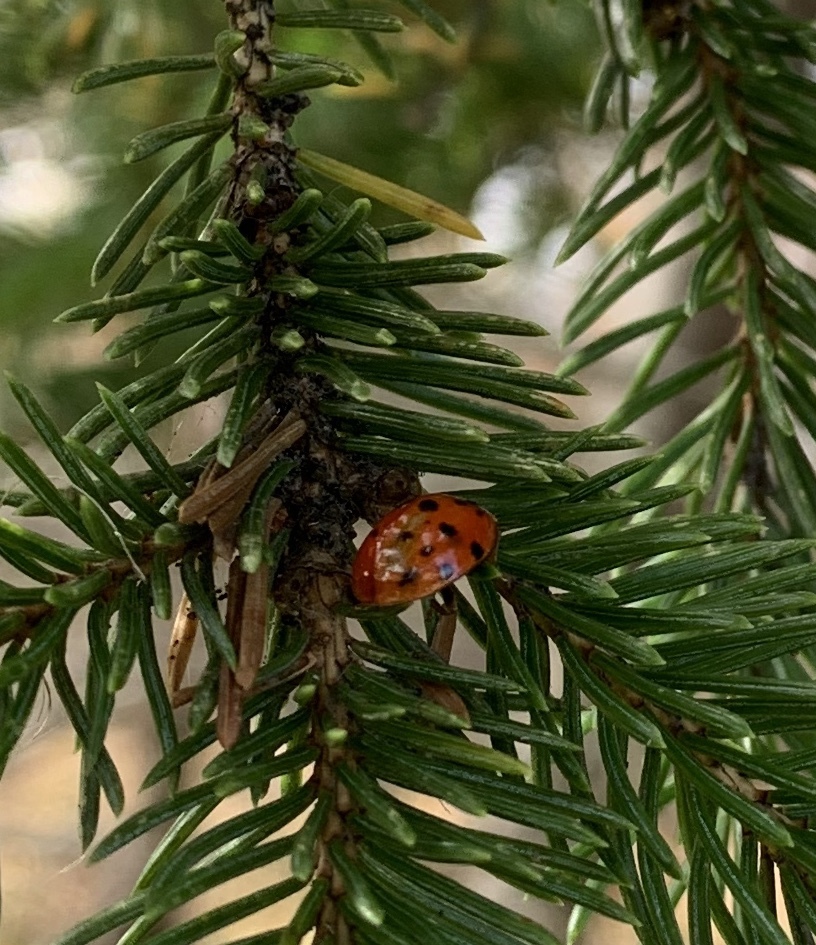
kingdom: Animalia
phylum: Arthropoda
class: Insecta
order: Coleoptera
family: Coccinellidae
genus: Harmonia
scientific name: Harmonia axyridis
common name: Harlequin ladybird
